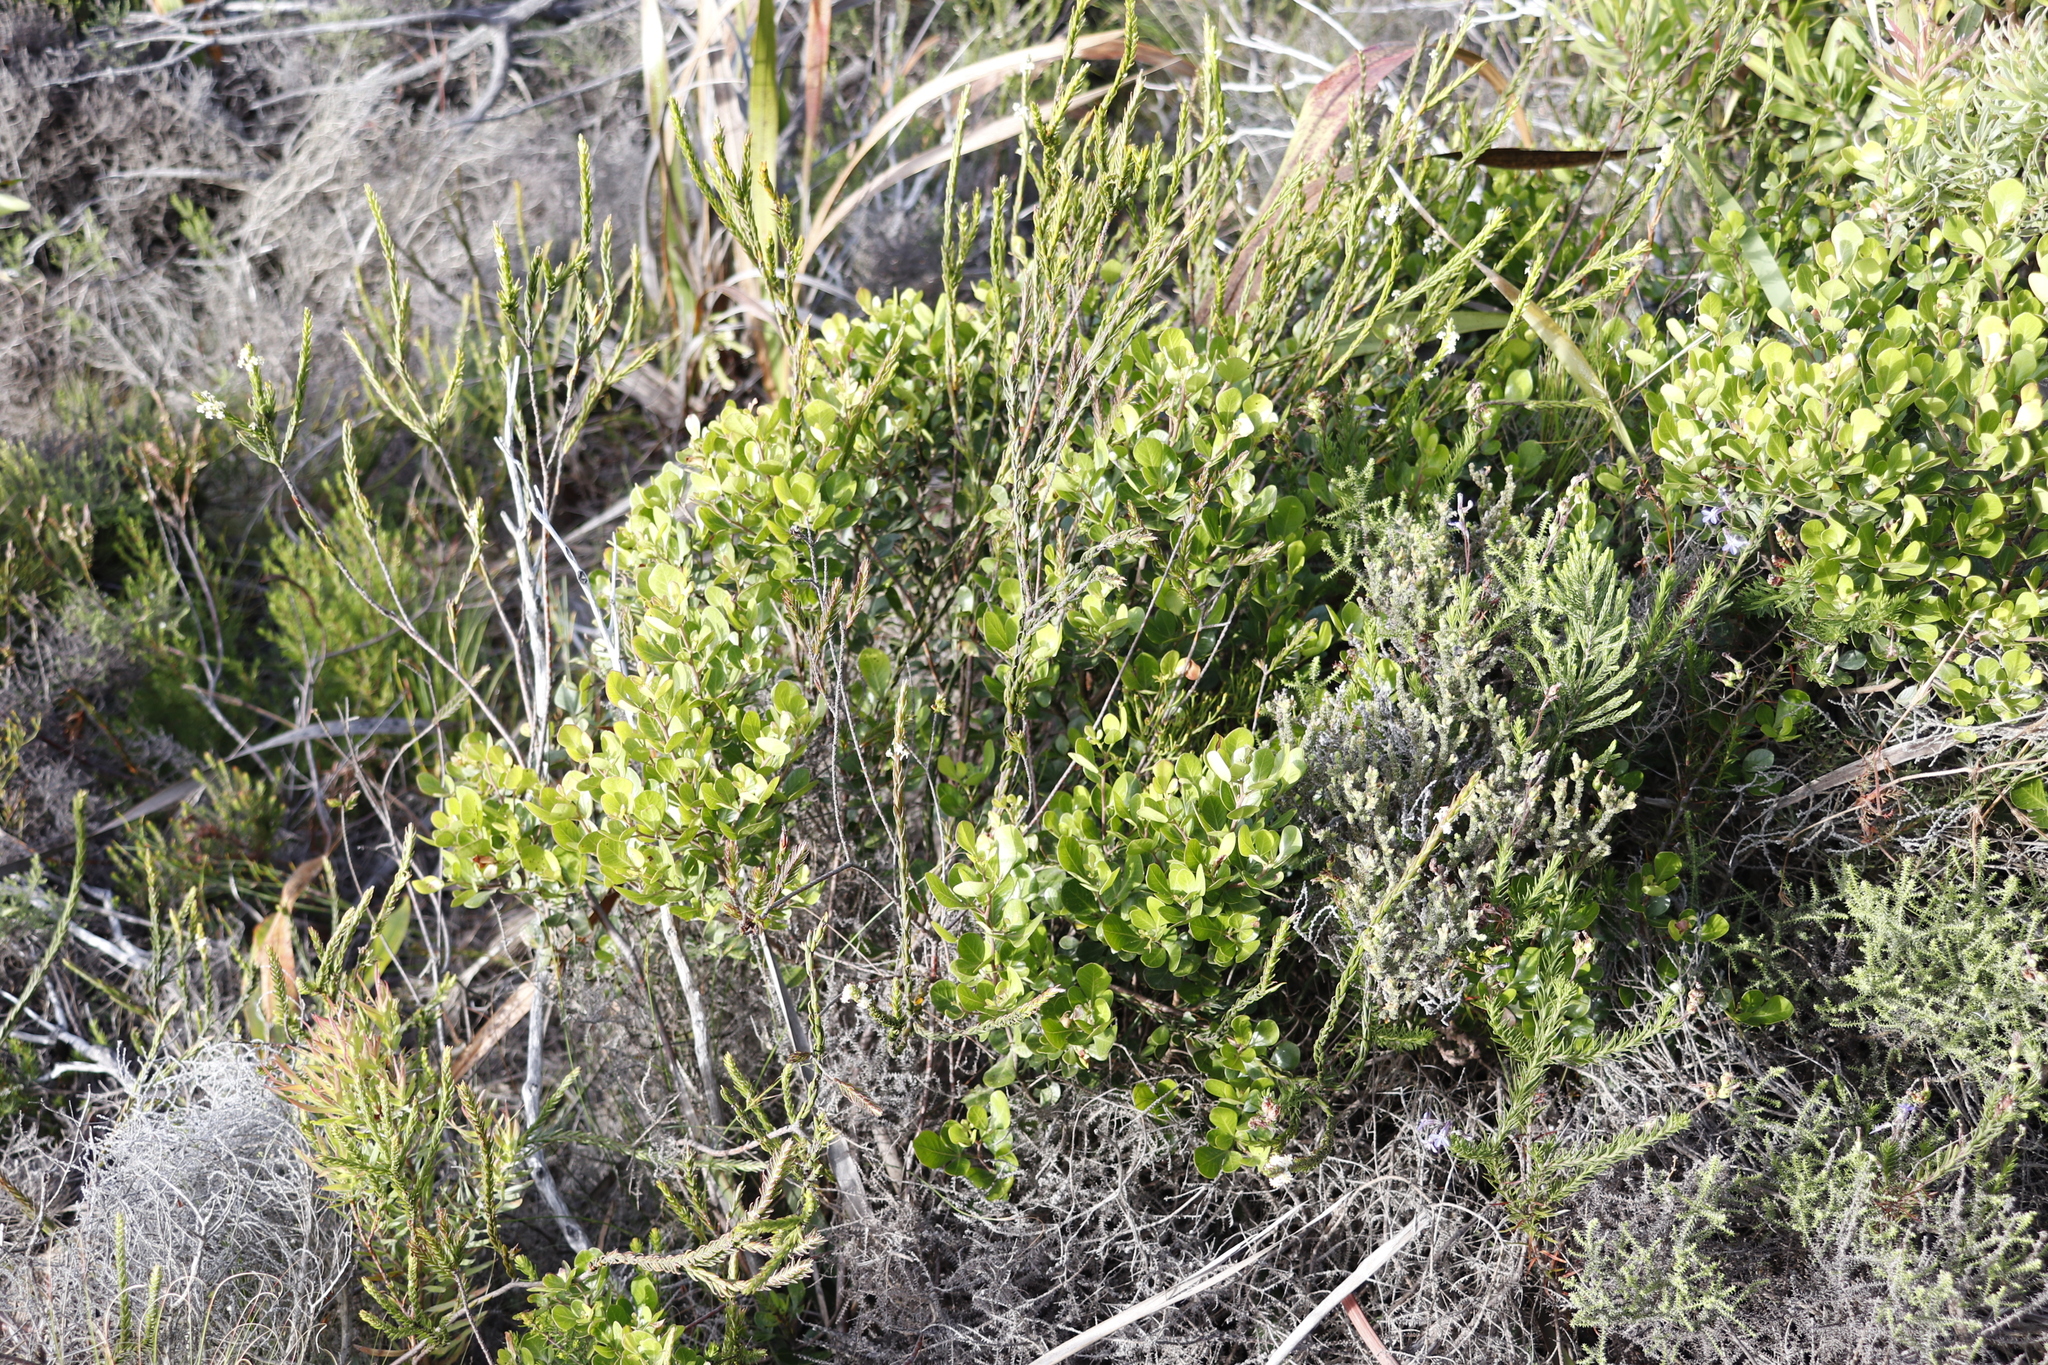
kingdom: Plantae
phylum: Tracheophyta
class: Magnoliopsida
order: Sapindales
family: Anacardiaceae
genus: Searsia
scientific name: Searsia lucida
